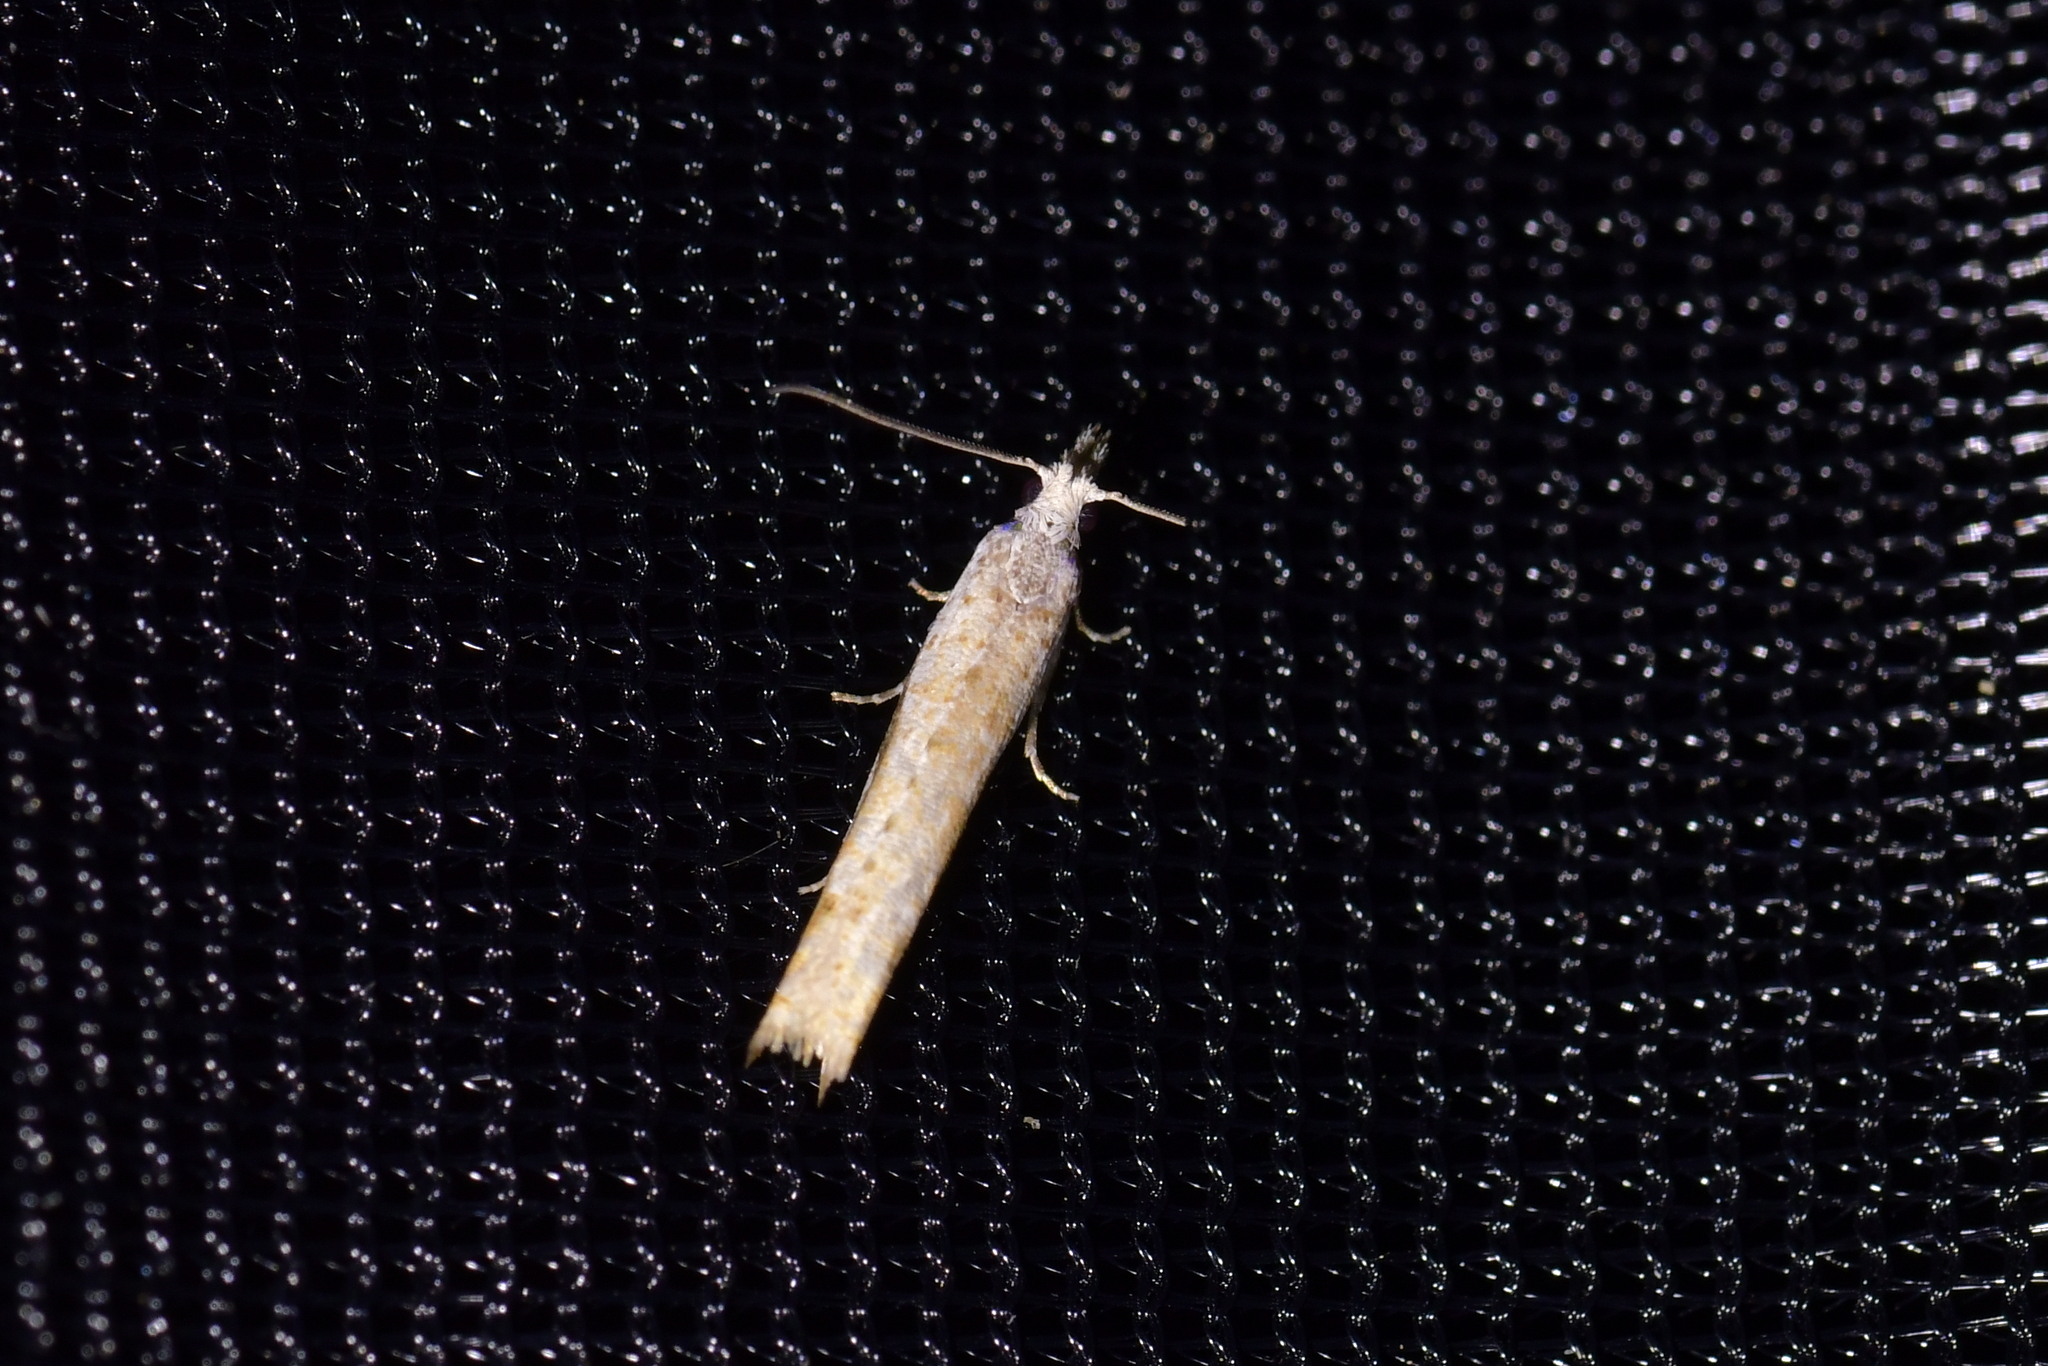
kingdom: Animalia
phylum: Arthropoda
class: Insecta
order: Lepidoptera
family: Tortricidae
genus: Holocola
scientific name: Holocola
